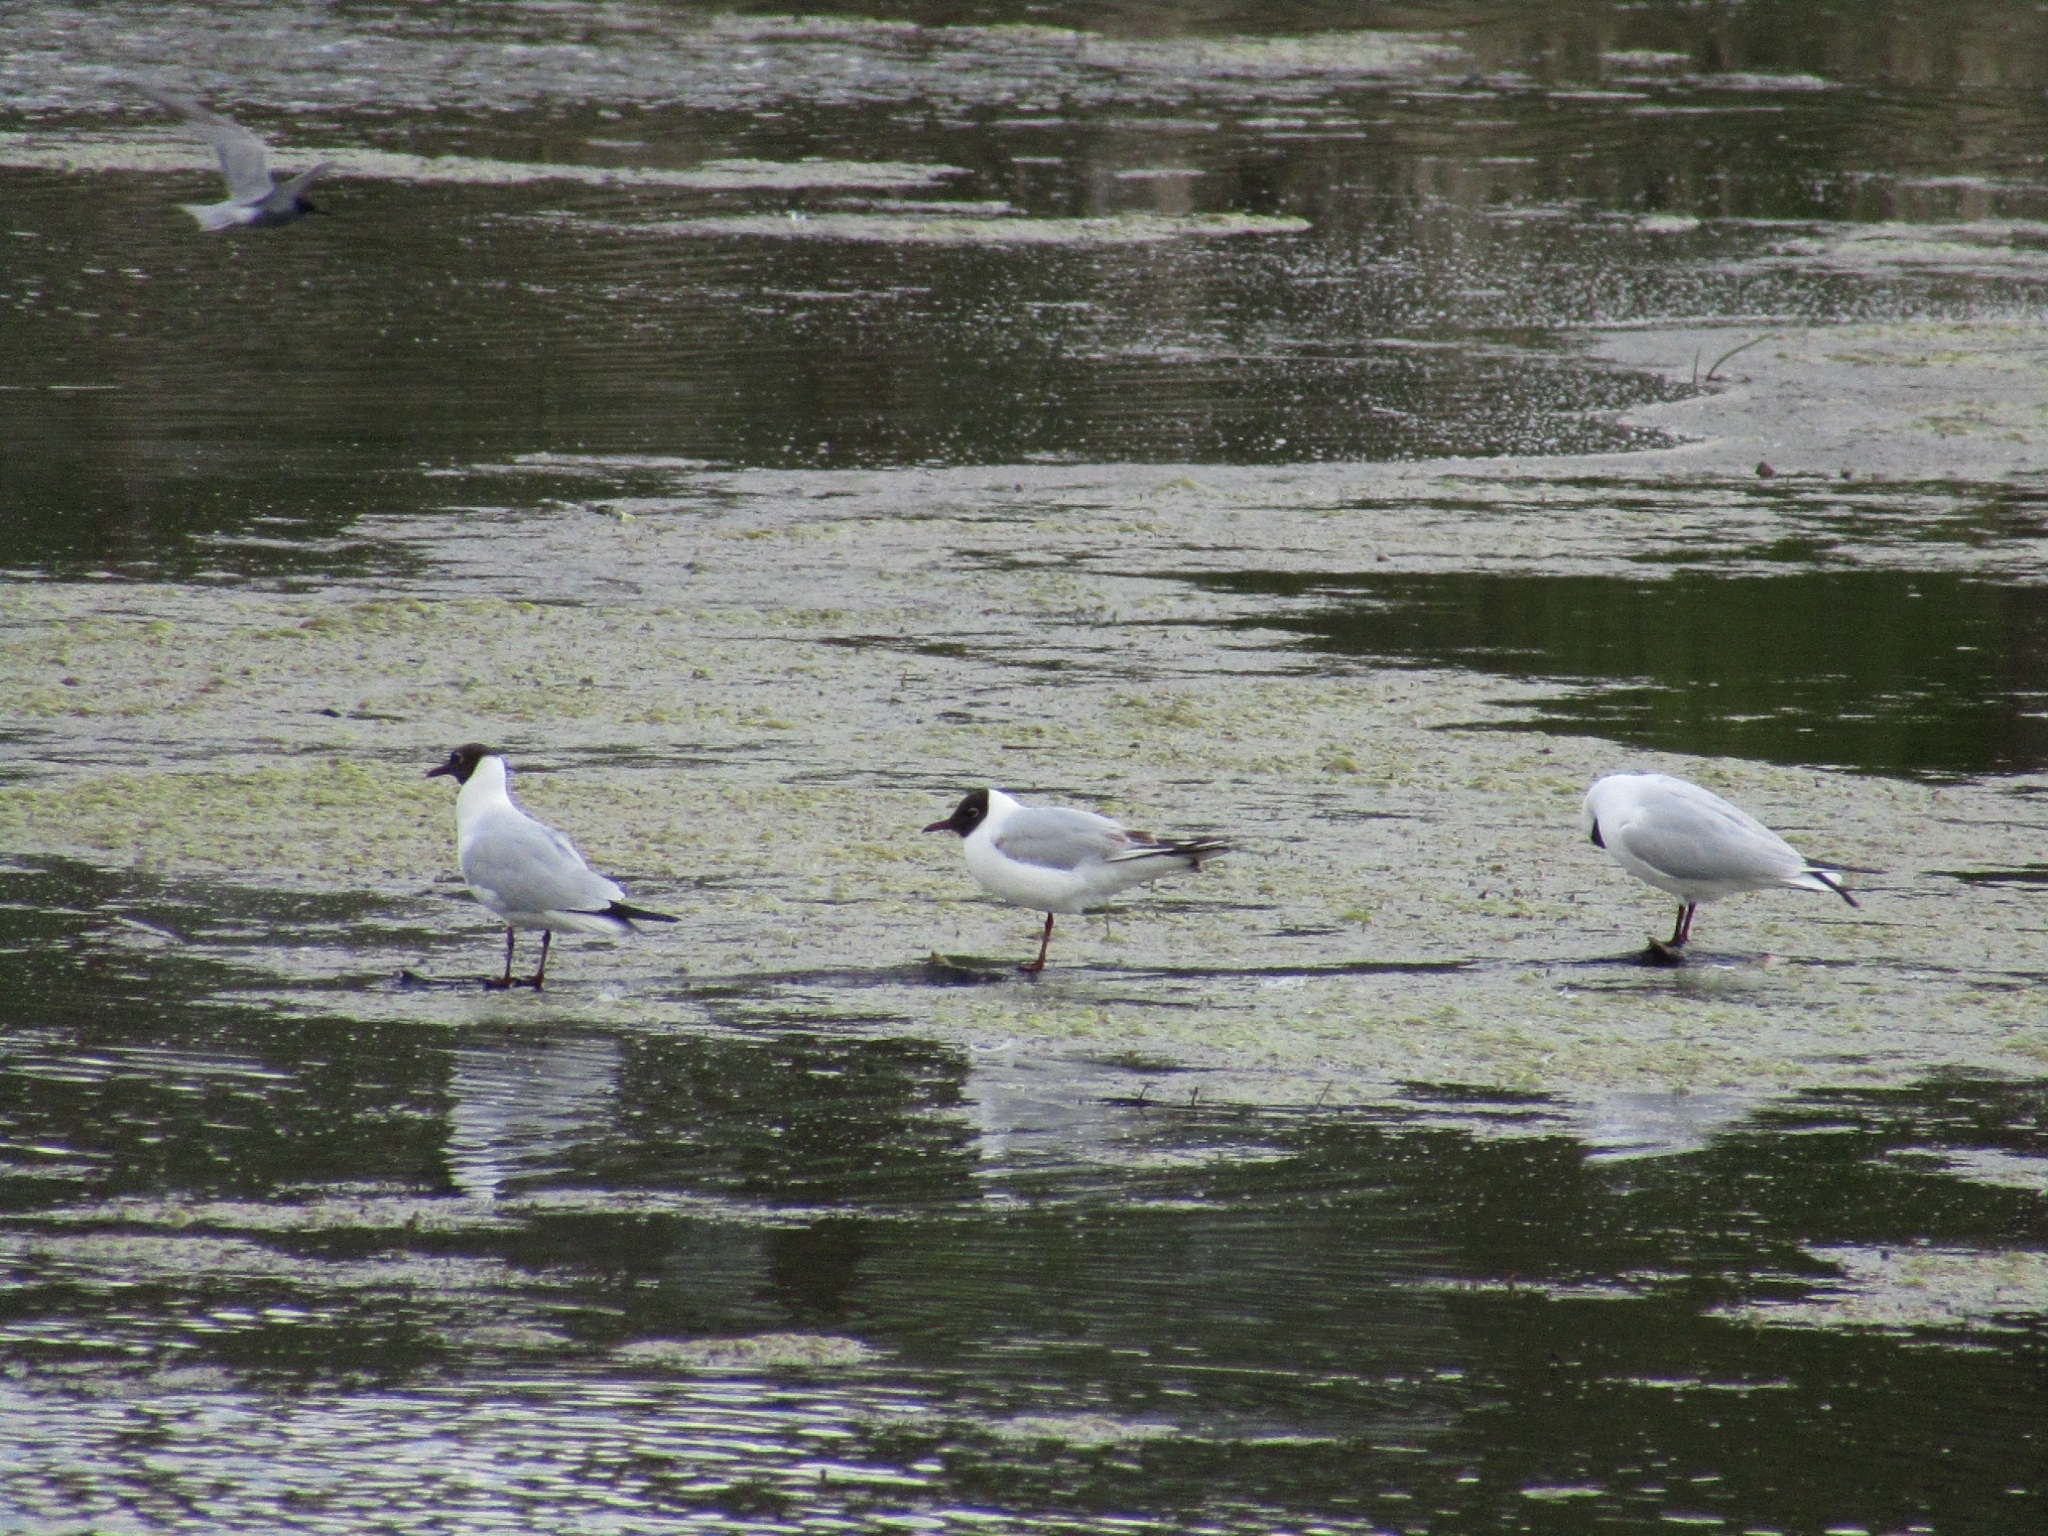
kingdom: Animalia
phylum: Chordata
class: Aves
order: Charadriiformes
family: Laridae
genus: Chroicocephalus
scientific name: Chroicocephalus ridibundus
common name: Black-headed gull
